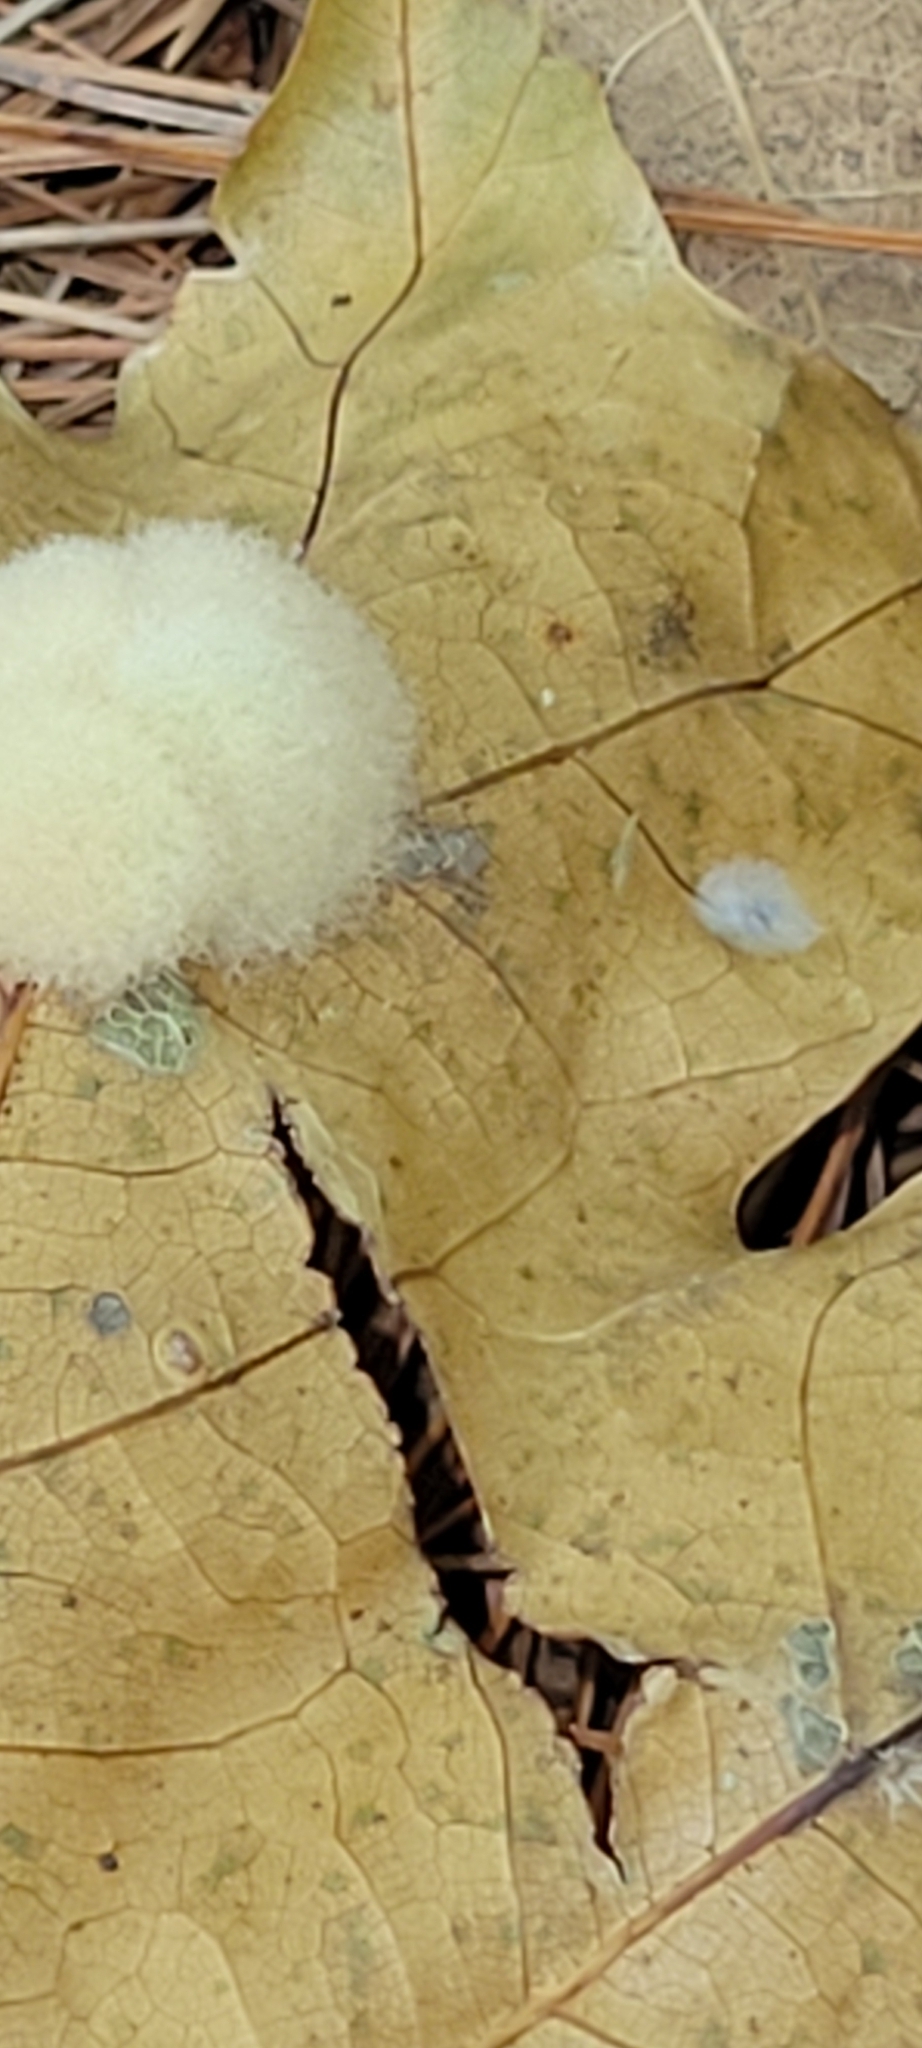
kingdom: Animalia
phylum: Arthropoda
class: Insecta
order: Hymenoptera
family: Cynipidae
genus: Callirhytis
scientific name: Callirhytis
